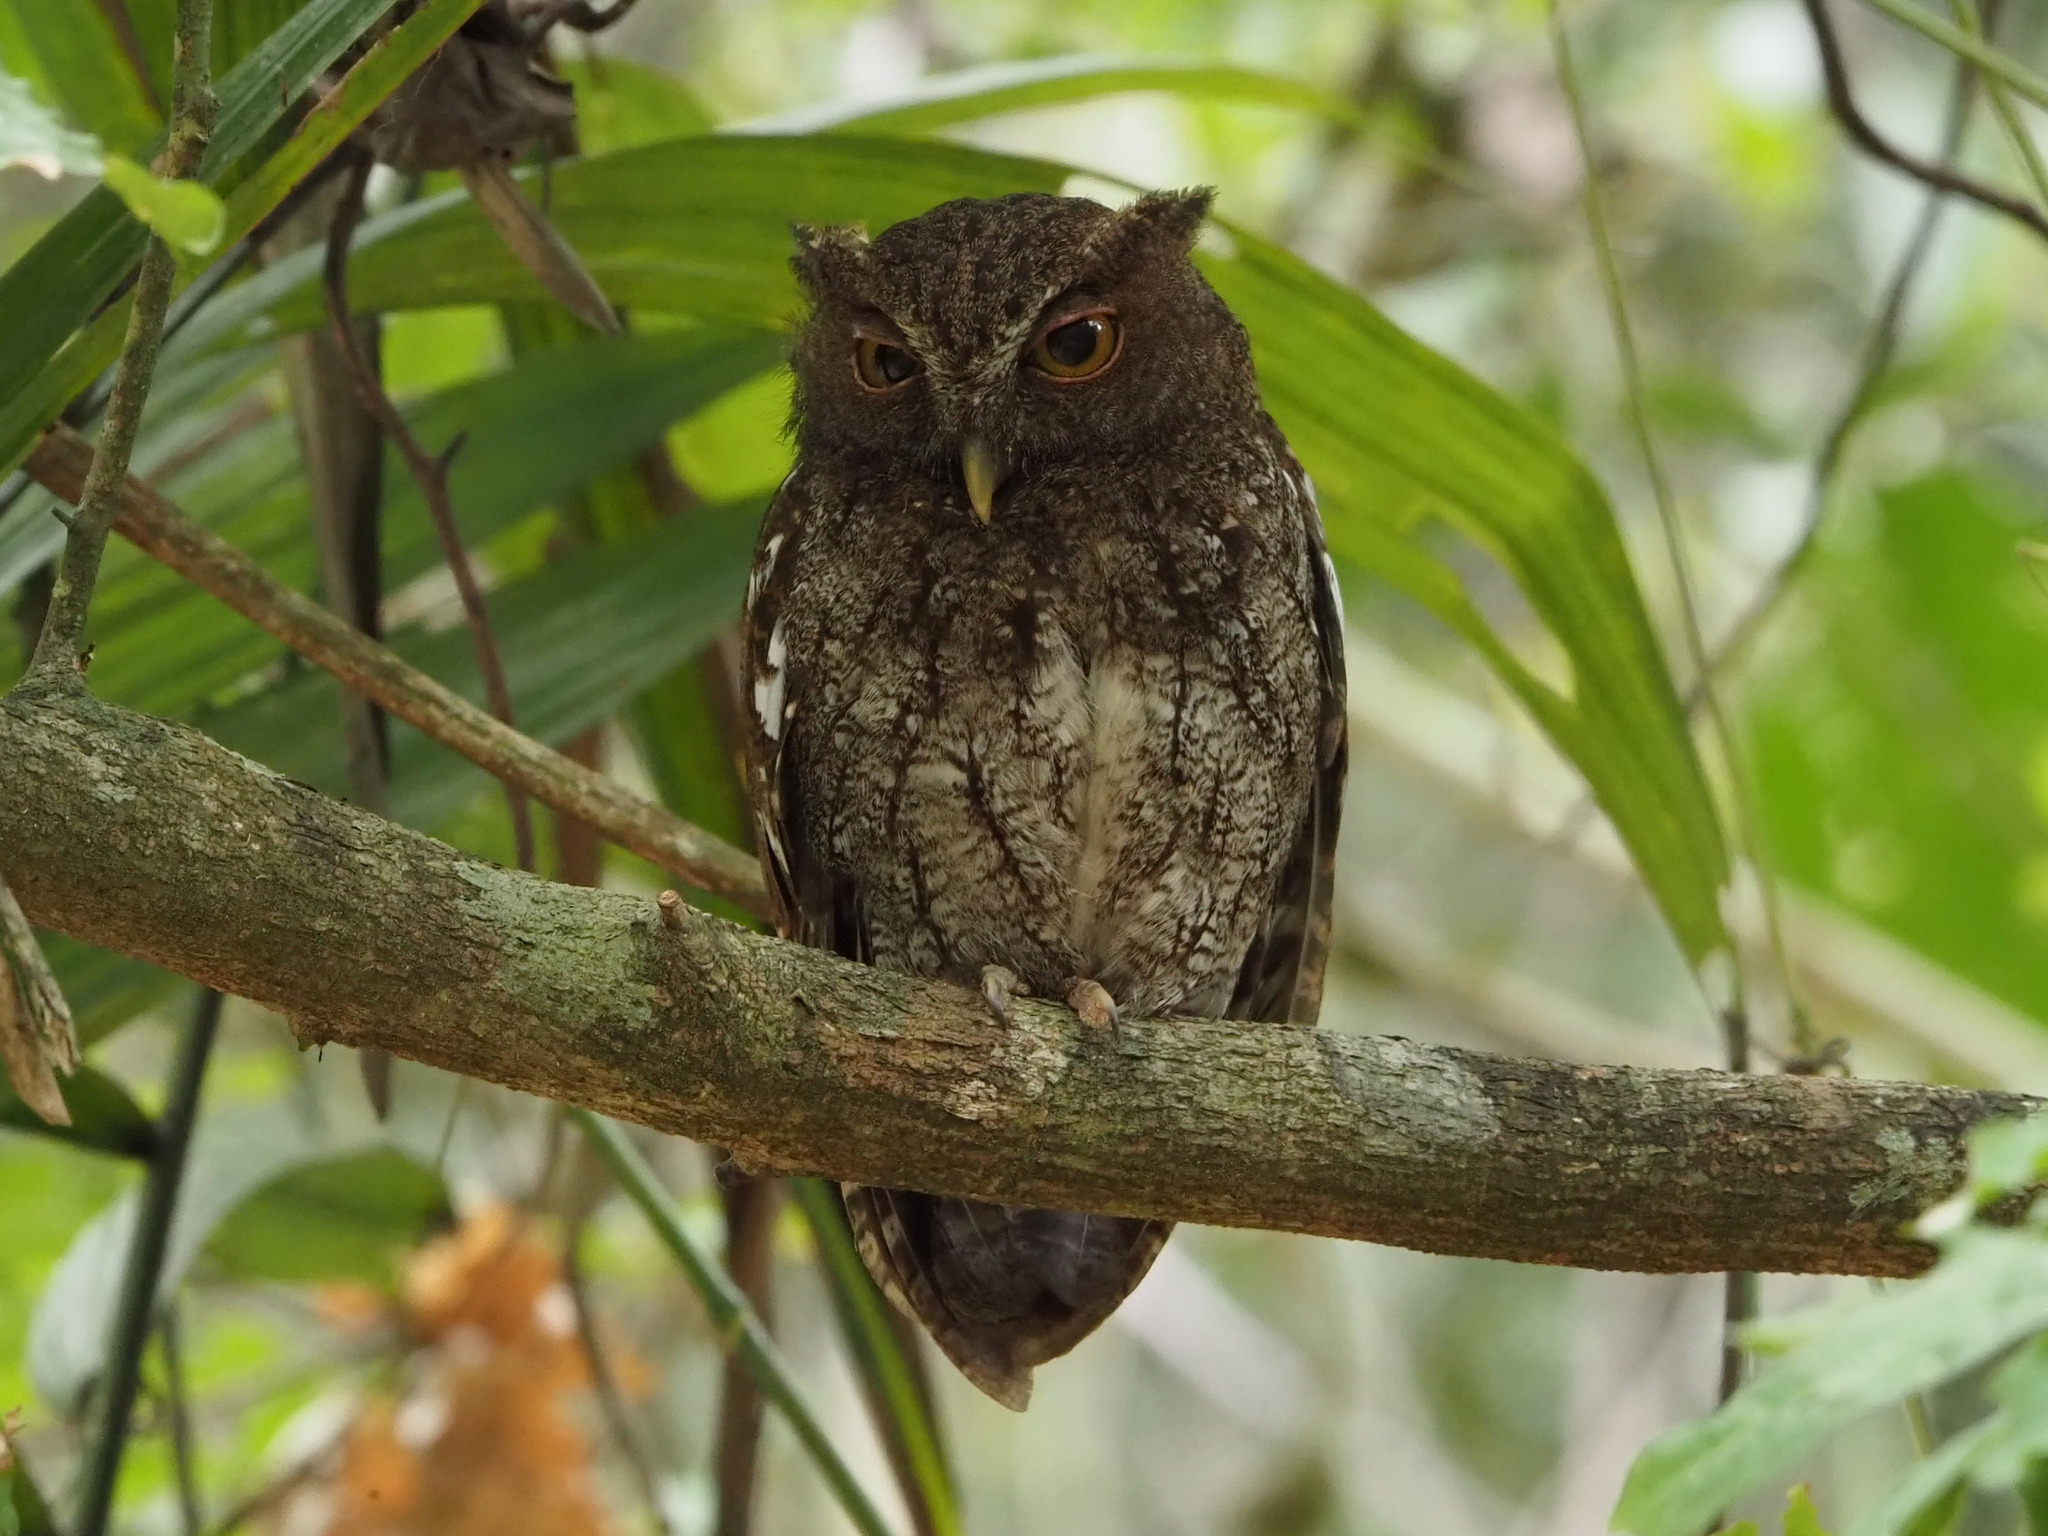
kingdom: Animalia
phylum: Chordata
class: Aves
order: Strigiformes
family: Strigidae
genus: Megascops
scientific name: Megascops centralis
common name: Choco screech owl
